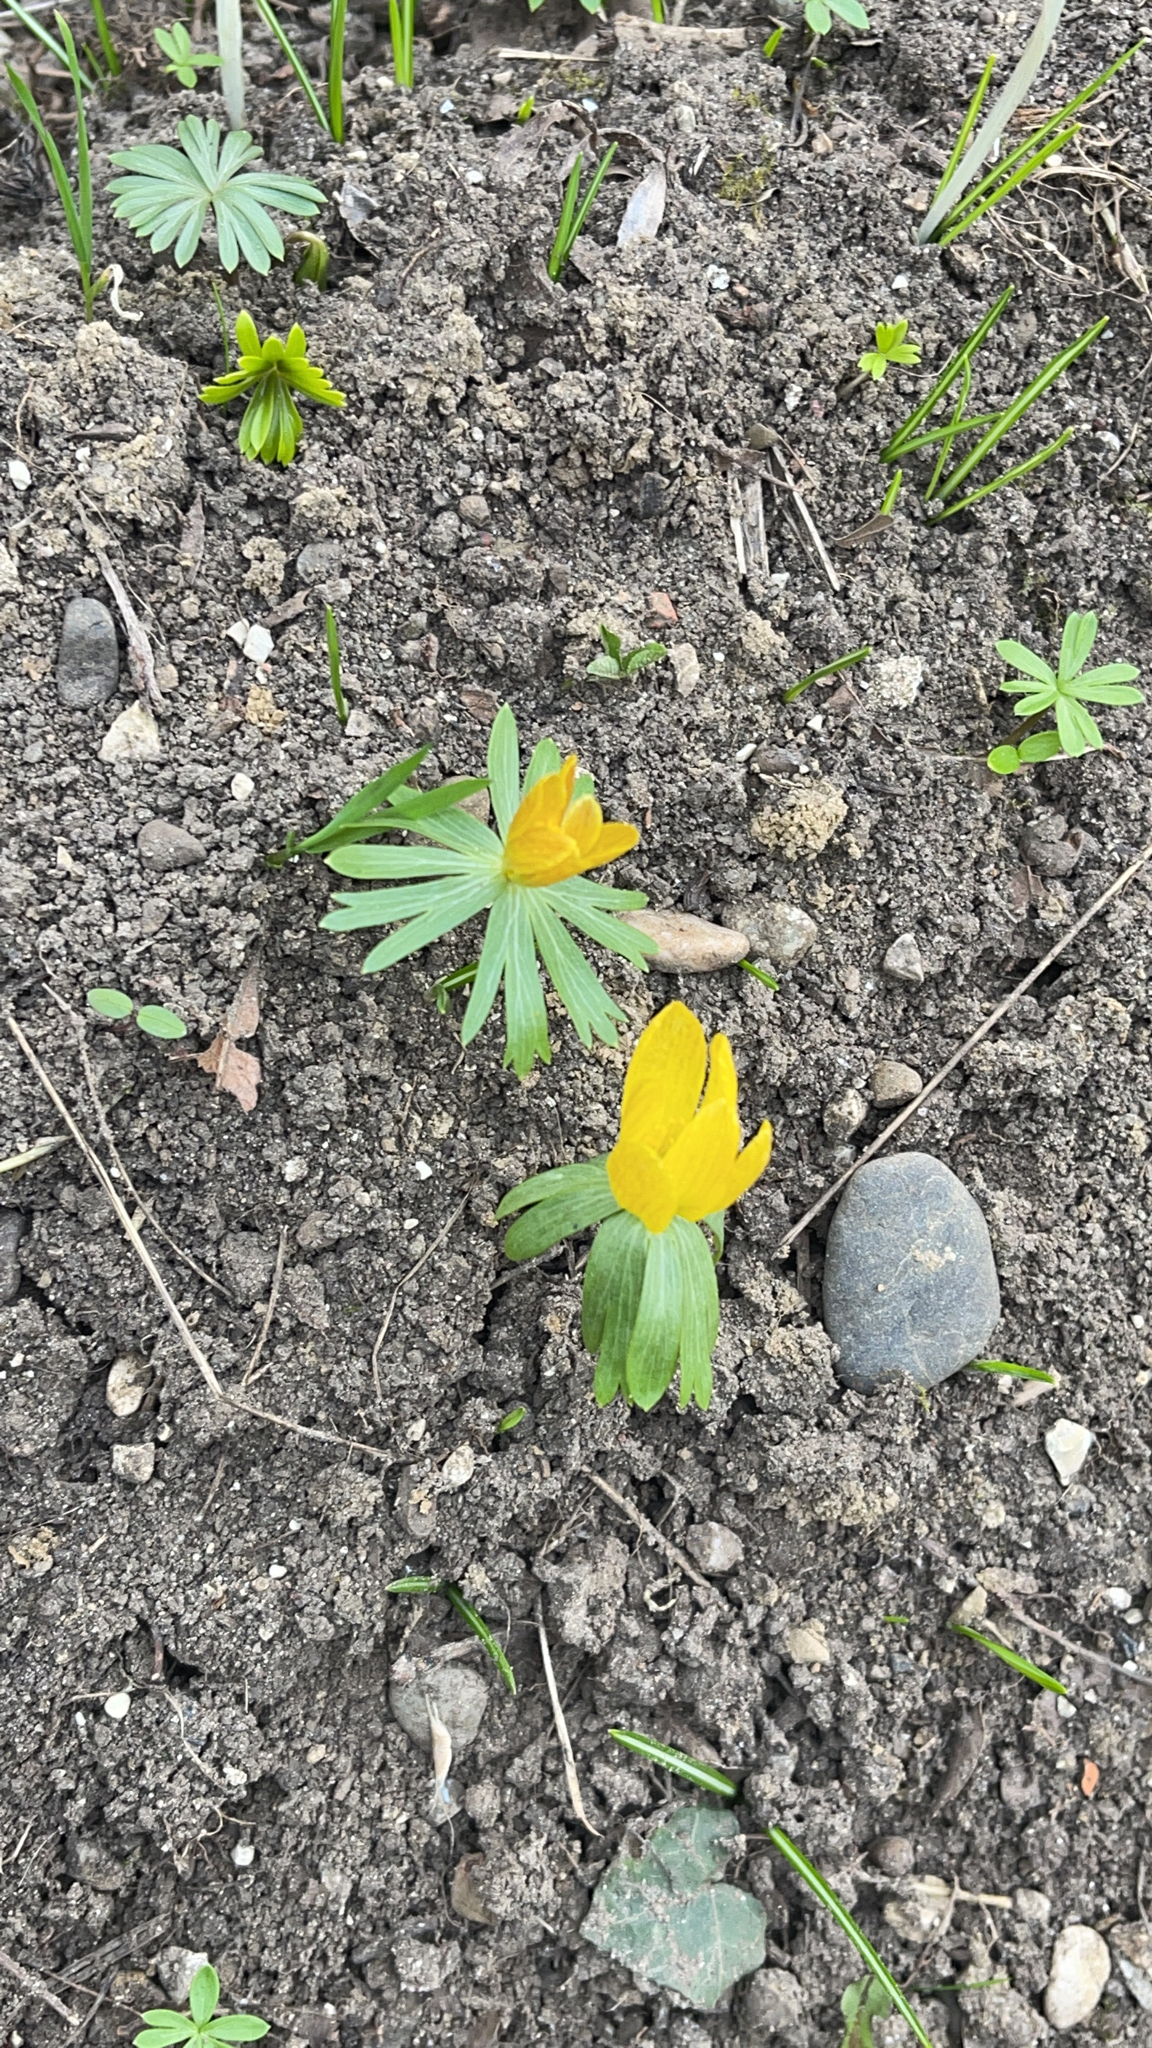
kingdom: Plantae
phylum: Tracheophyta
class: Magnoliopsida
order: Ranunculales
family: Ranunculaceae
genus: Eranthis
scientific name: Eranthis hyemalis
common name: Winter aconite
